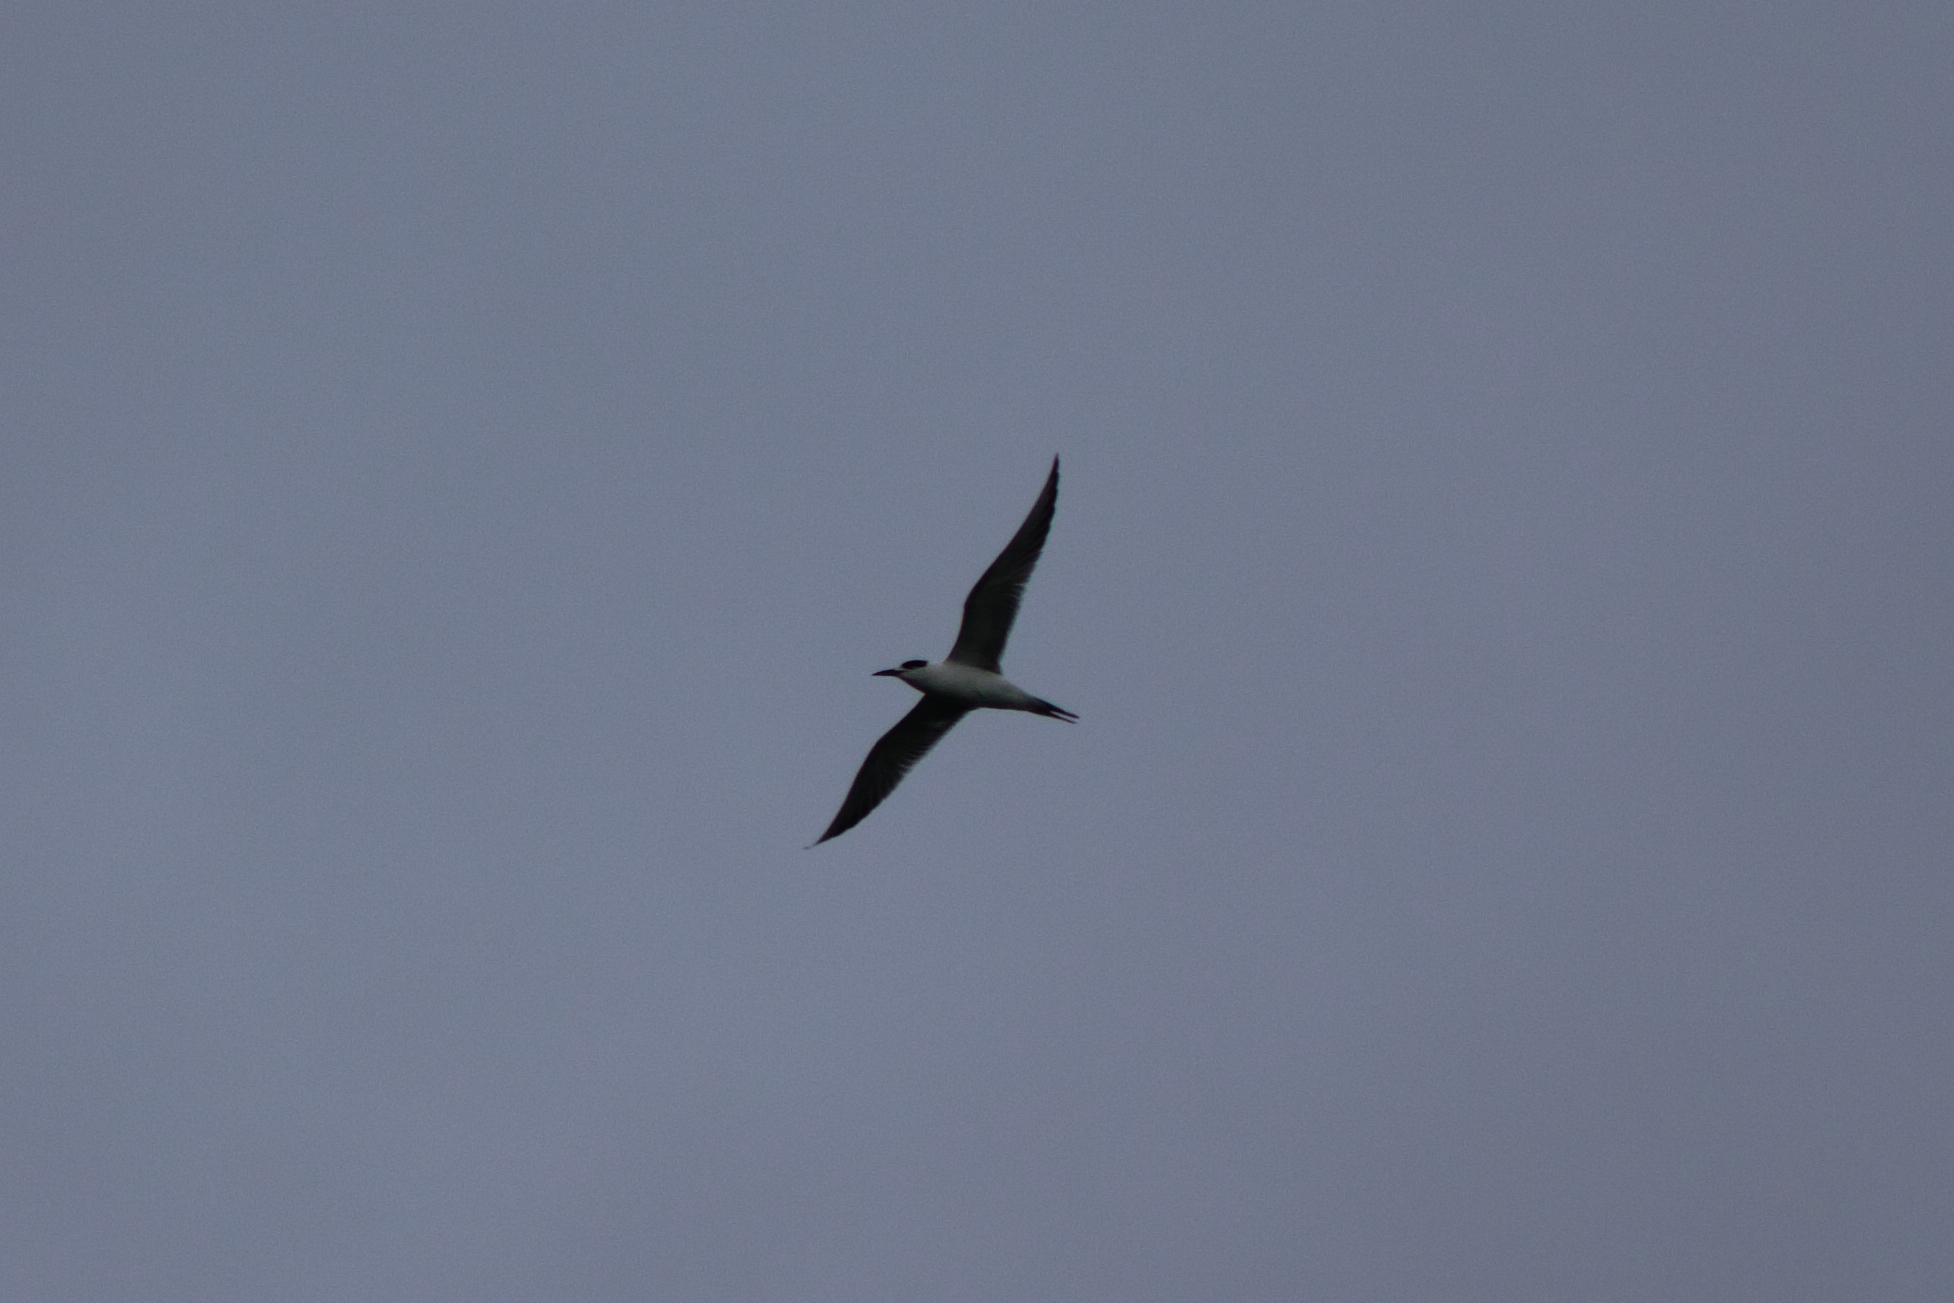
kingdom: Animalia
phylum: Chordata
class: Aves
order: Charadriiformes
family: Laridae
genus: Sterna
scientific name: Sterna forsteri
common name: Forster's tern
